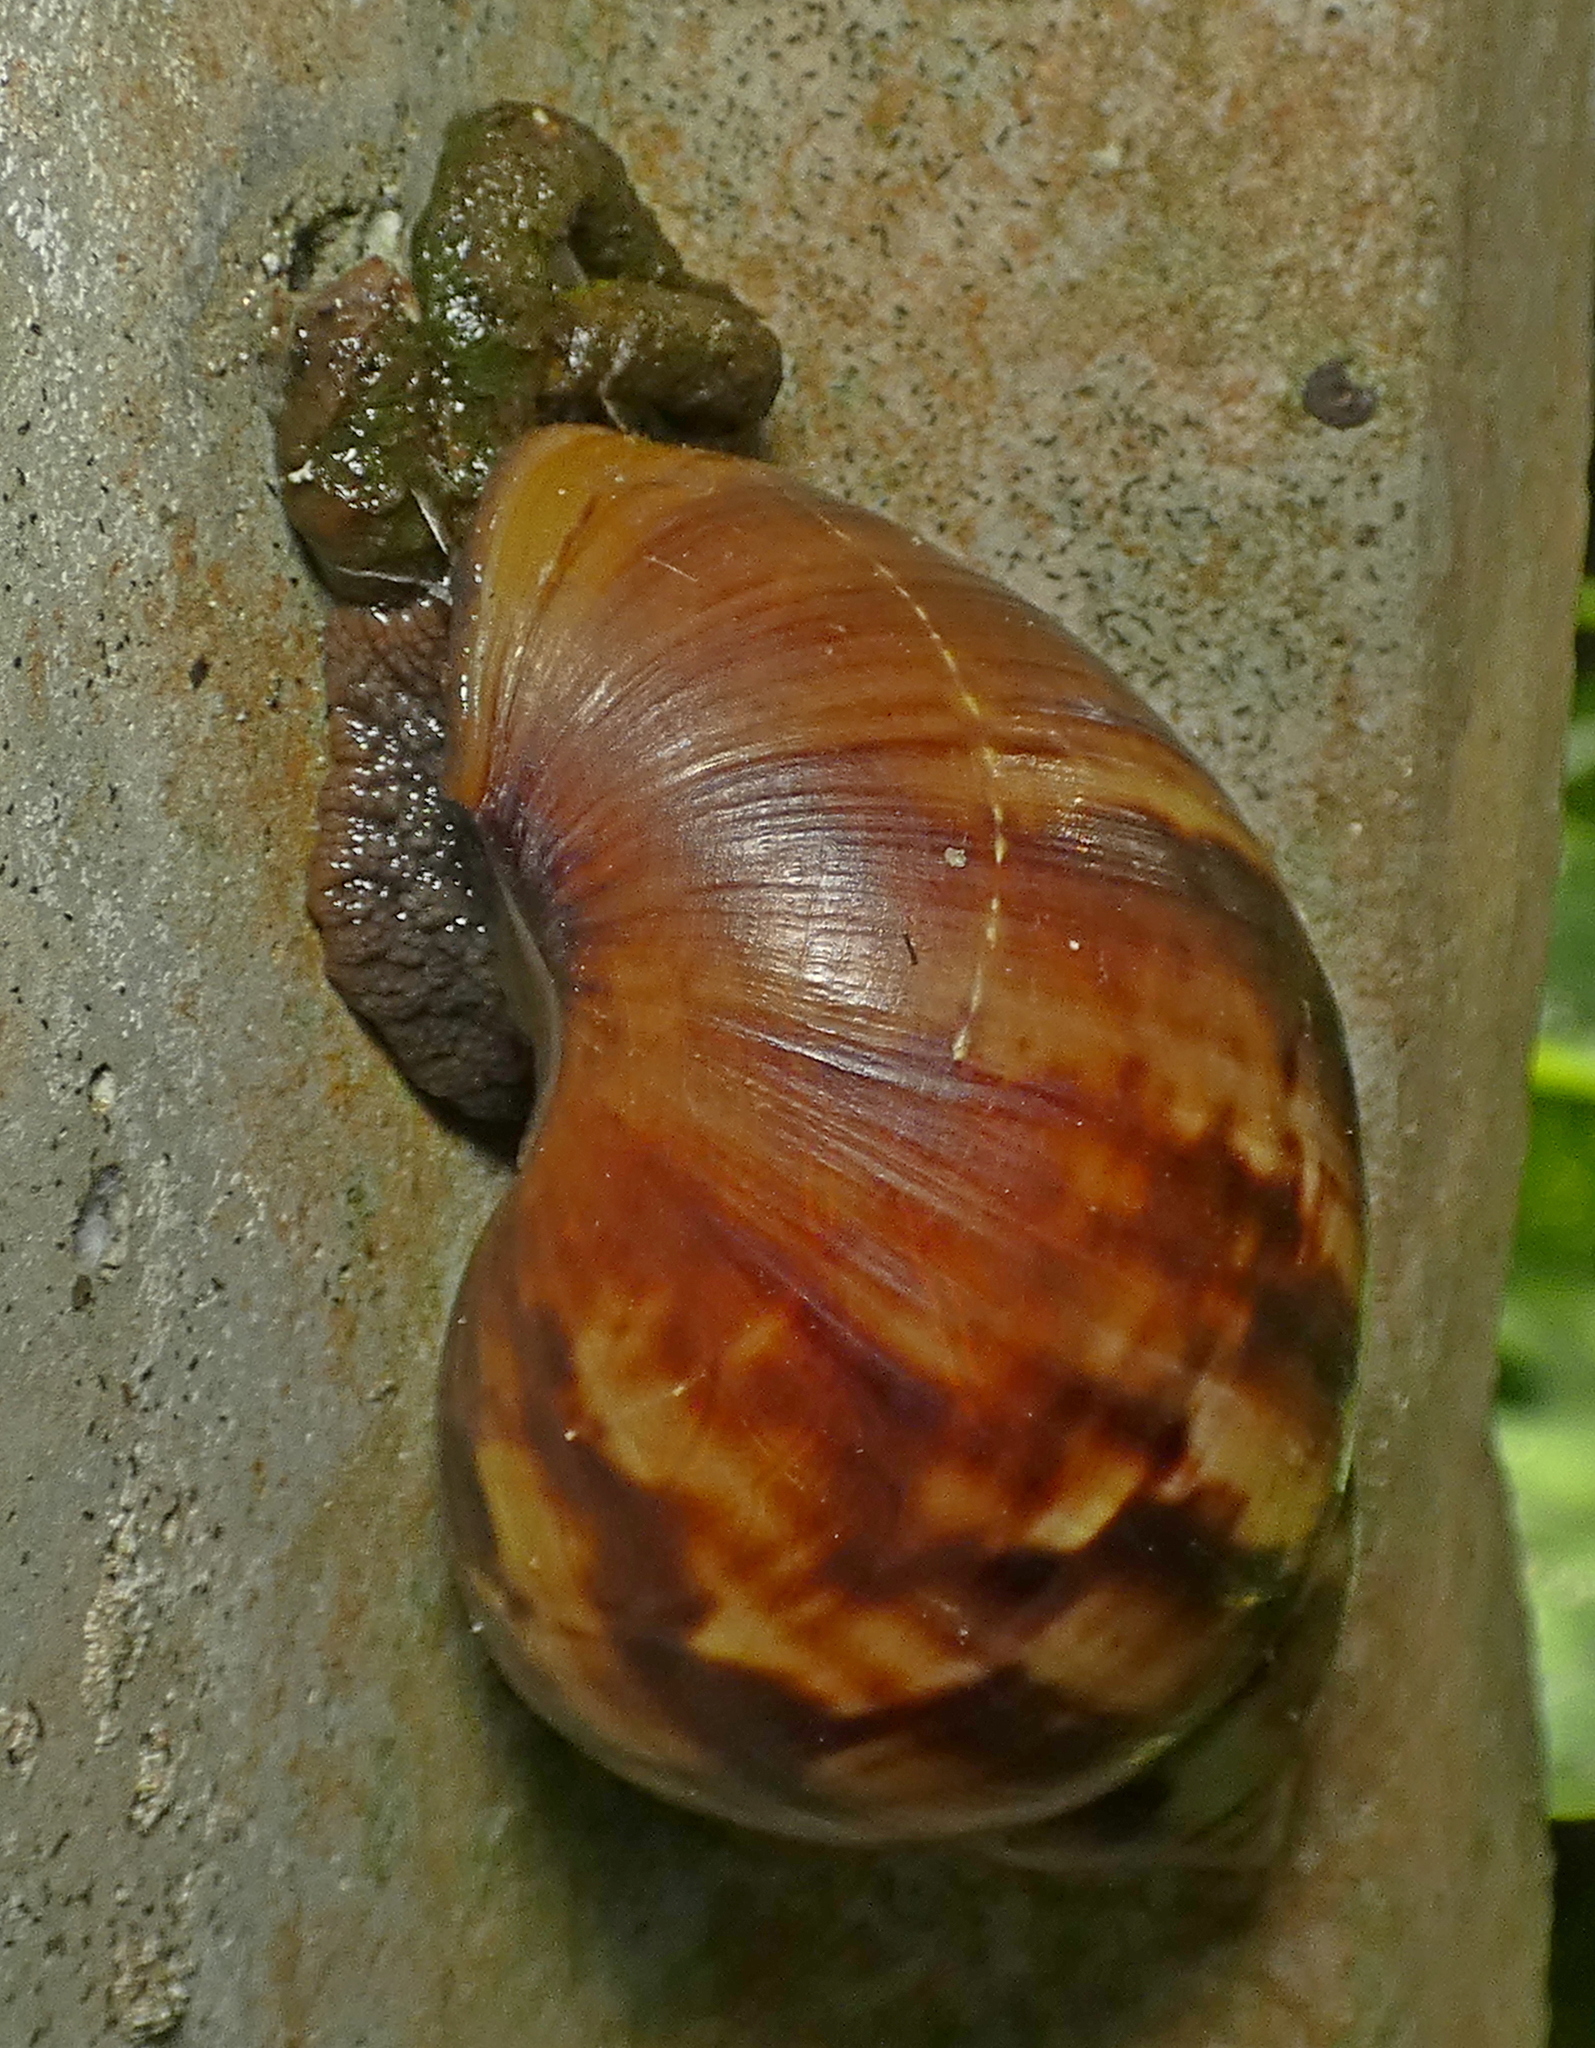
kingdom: Animalia
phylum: Mollusca
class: Gastropoda
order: Stylommatophora
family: Achatinidae
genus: Lissachatina
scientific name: Lissachatina fulica
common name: Giant african snail
